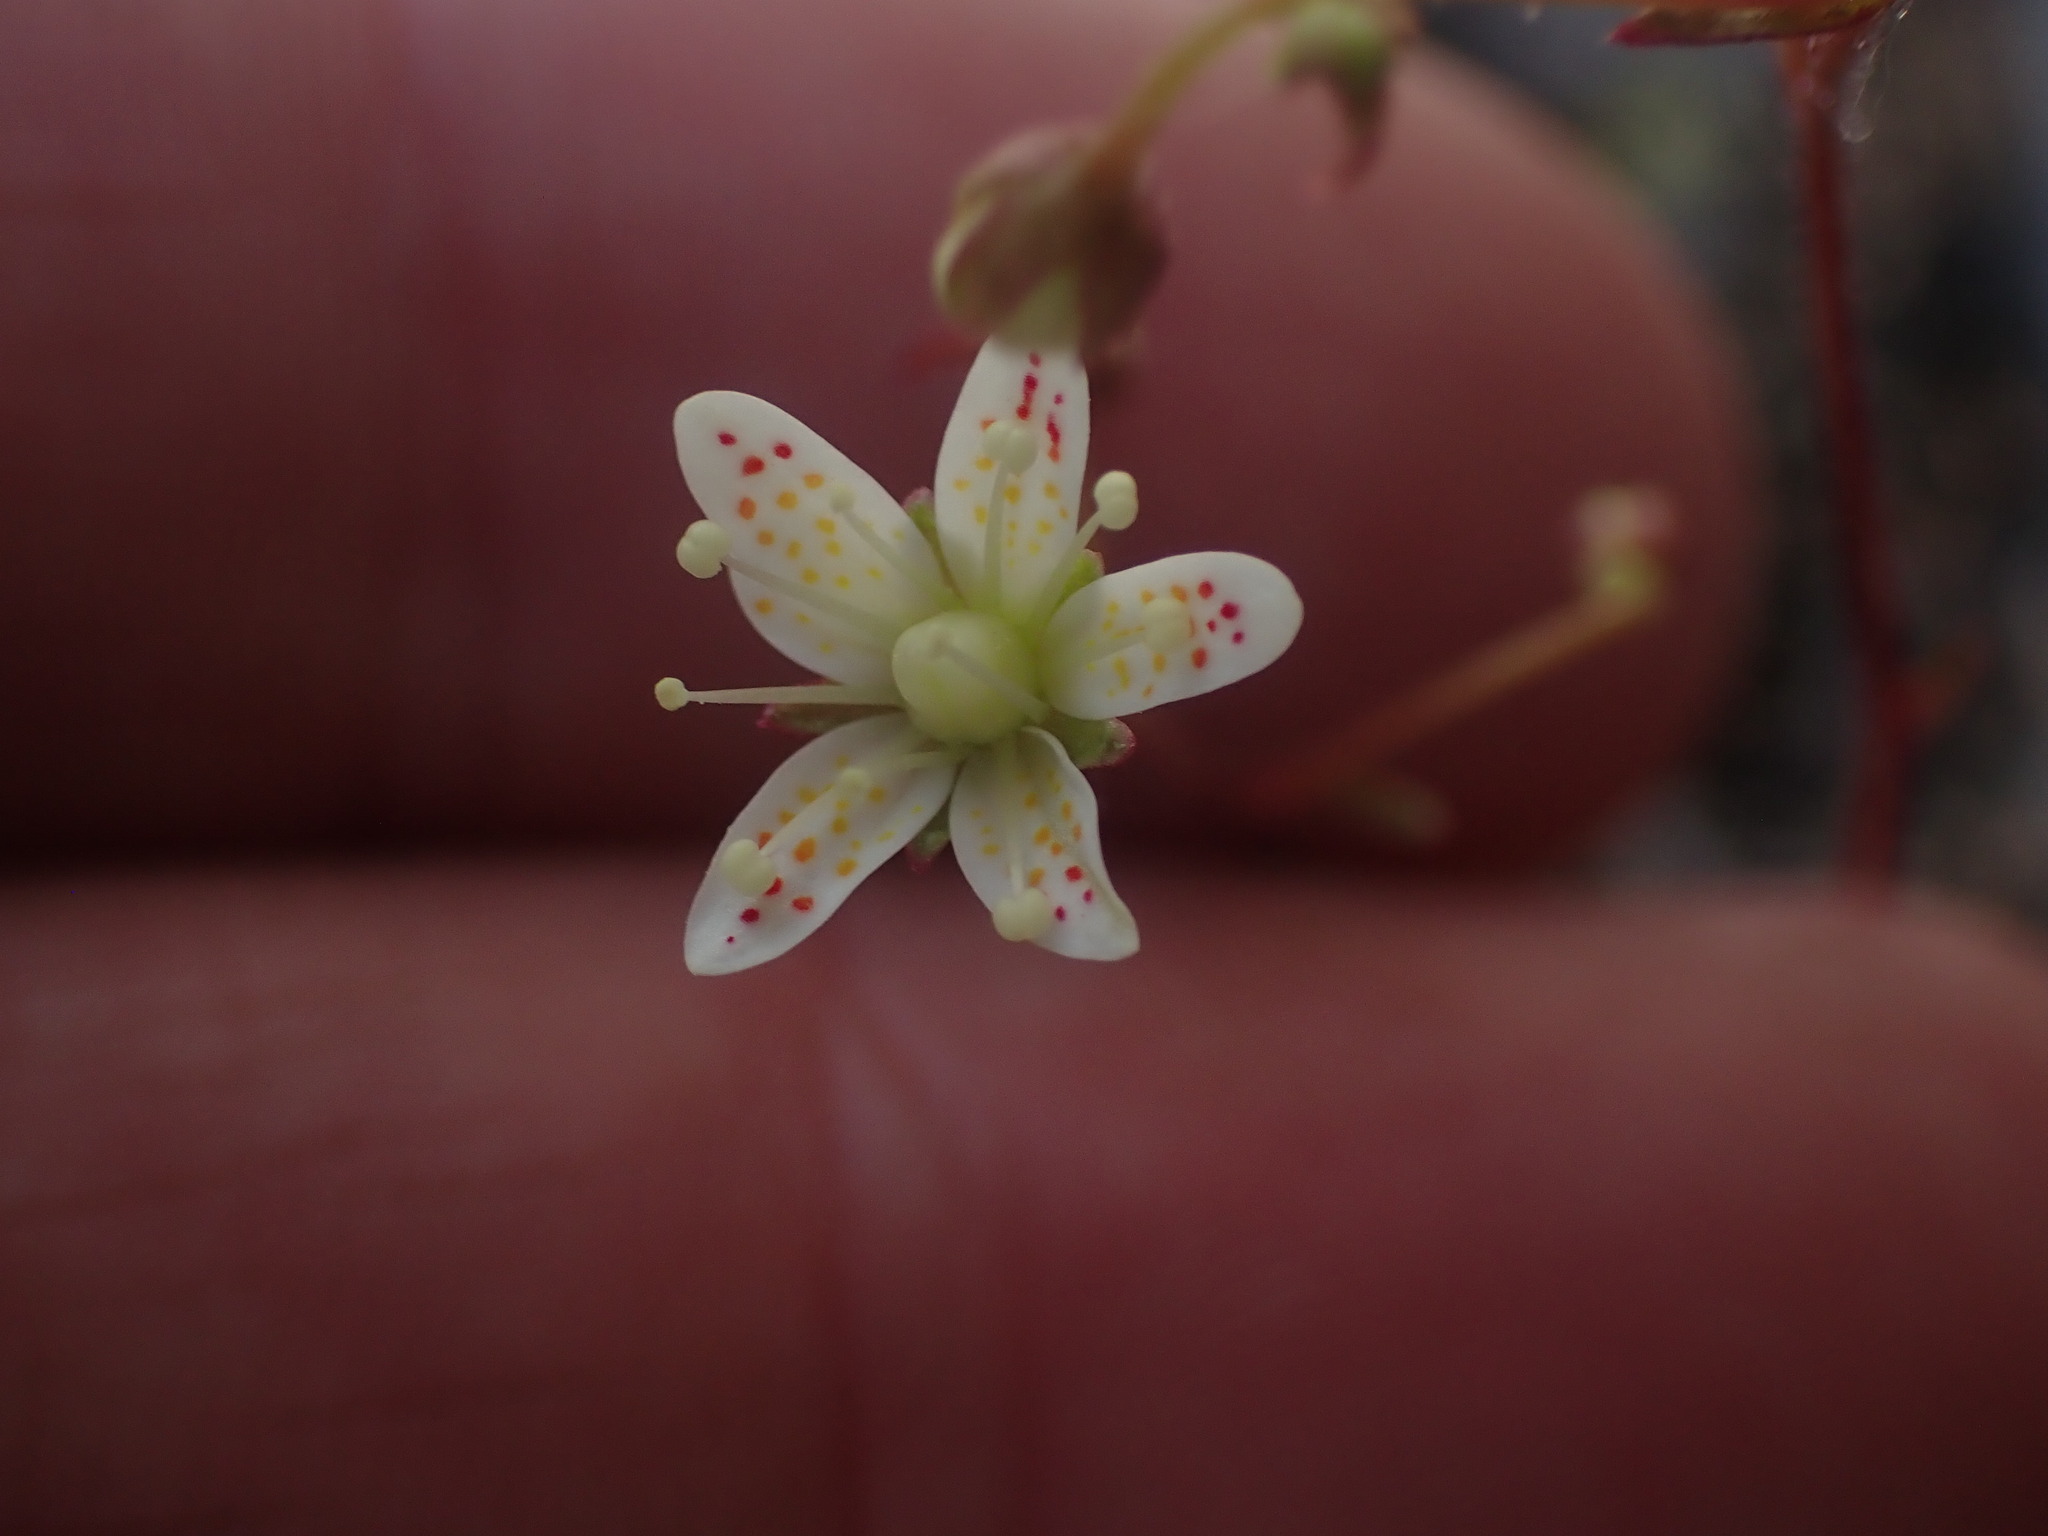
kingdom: Plantae
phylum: Tracheophyta
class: Magnoliopsida
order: Saxifragales
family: Saxifragaceae
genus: Saxifraga
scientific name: Saxifraga bronchialis
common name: Matted saxifrage
